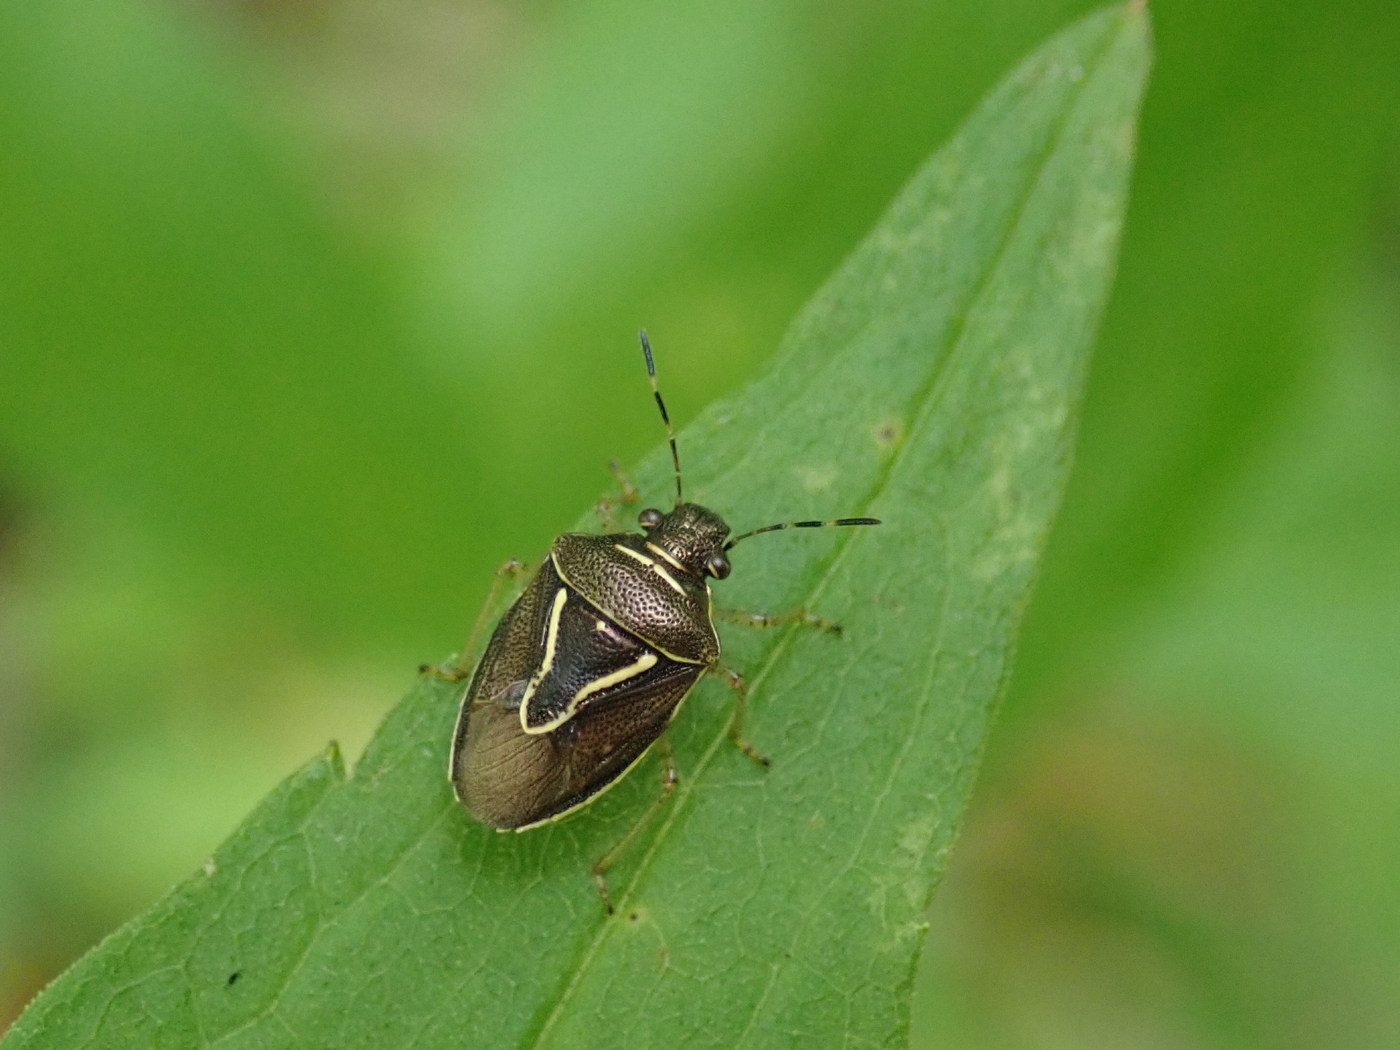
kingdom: Animalia
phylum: Arthropoda
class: Insecta
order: Hemiptera
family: Pentatomidae
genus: Mormidea
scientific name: Mormidea lugens
